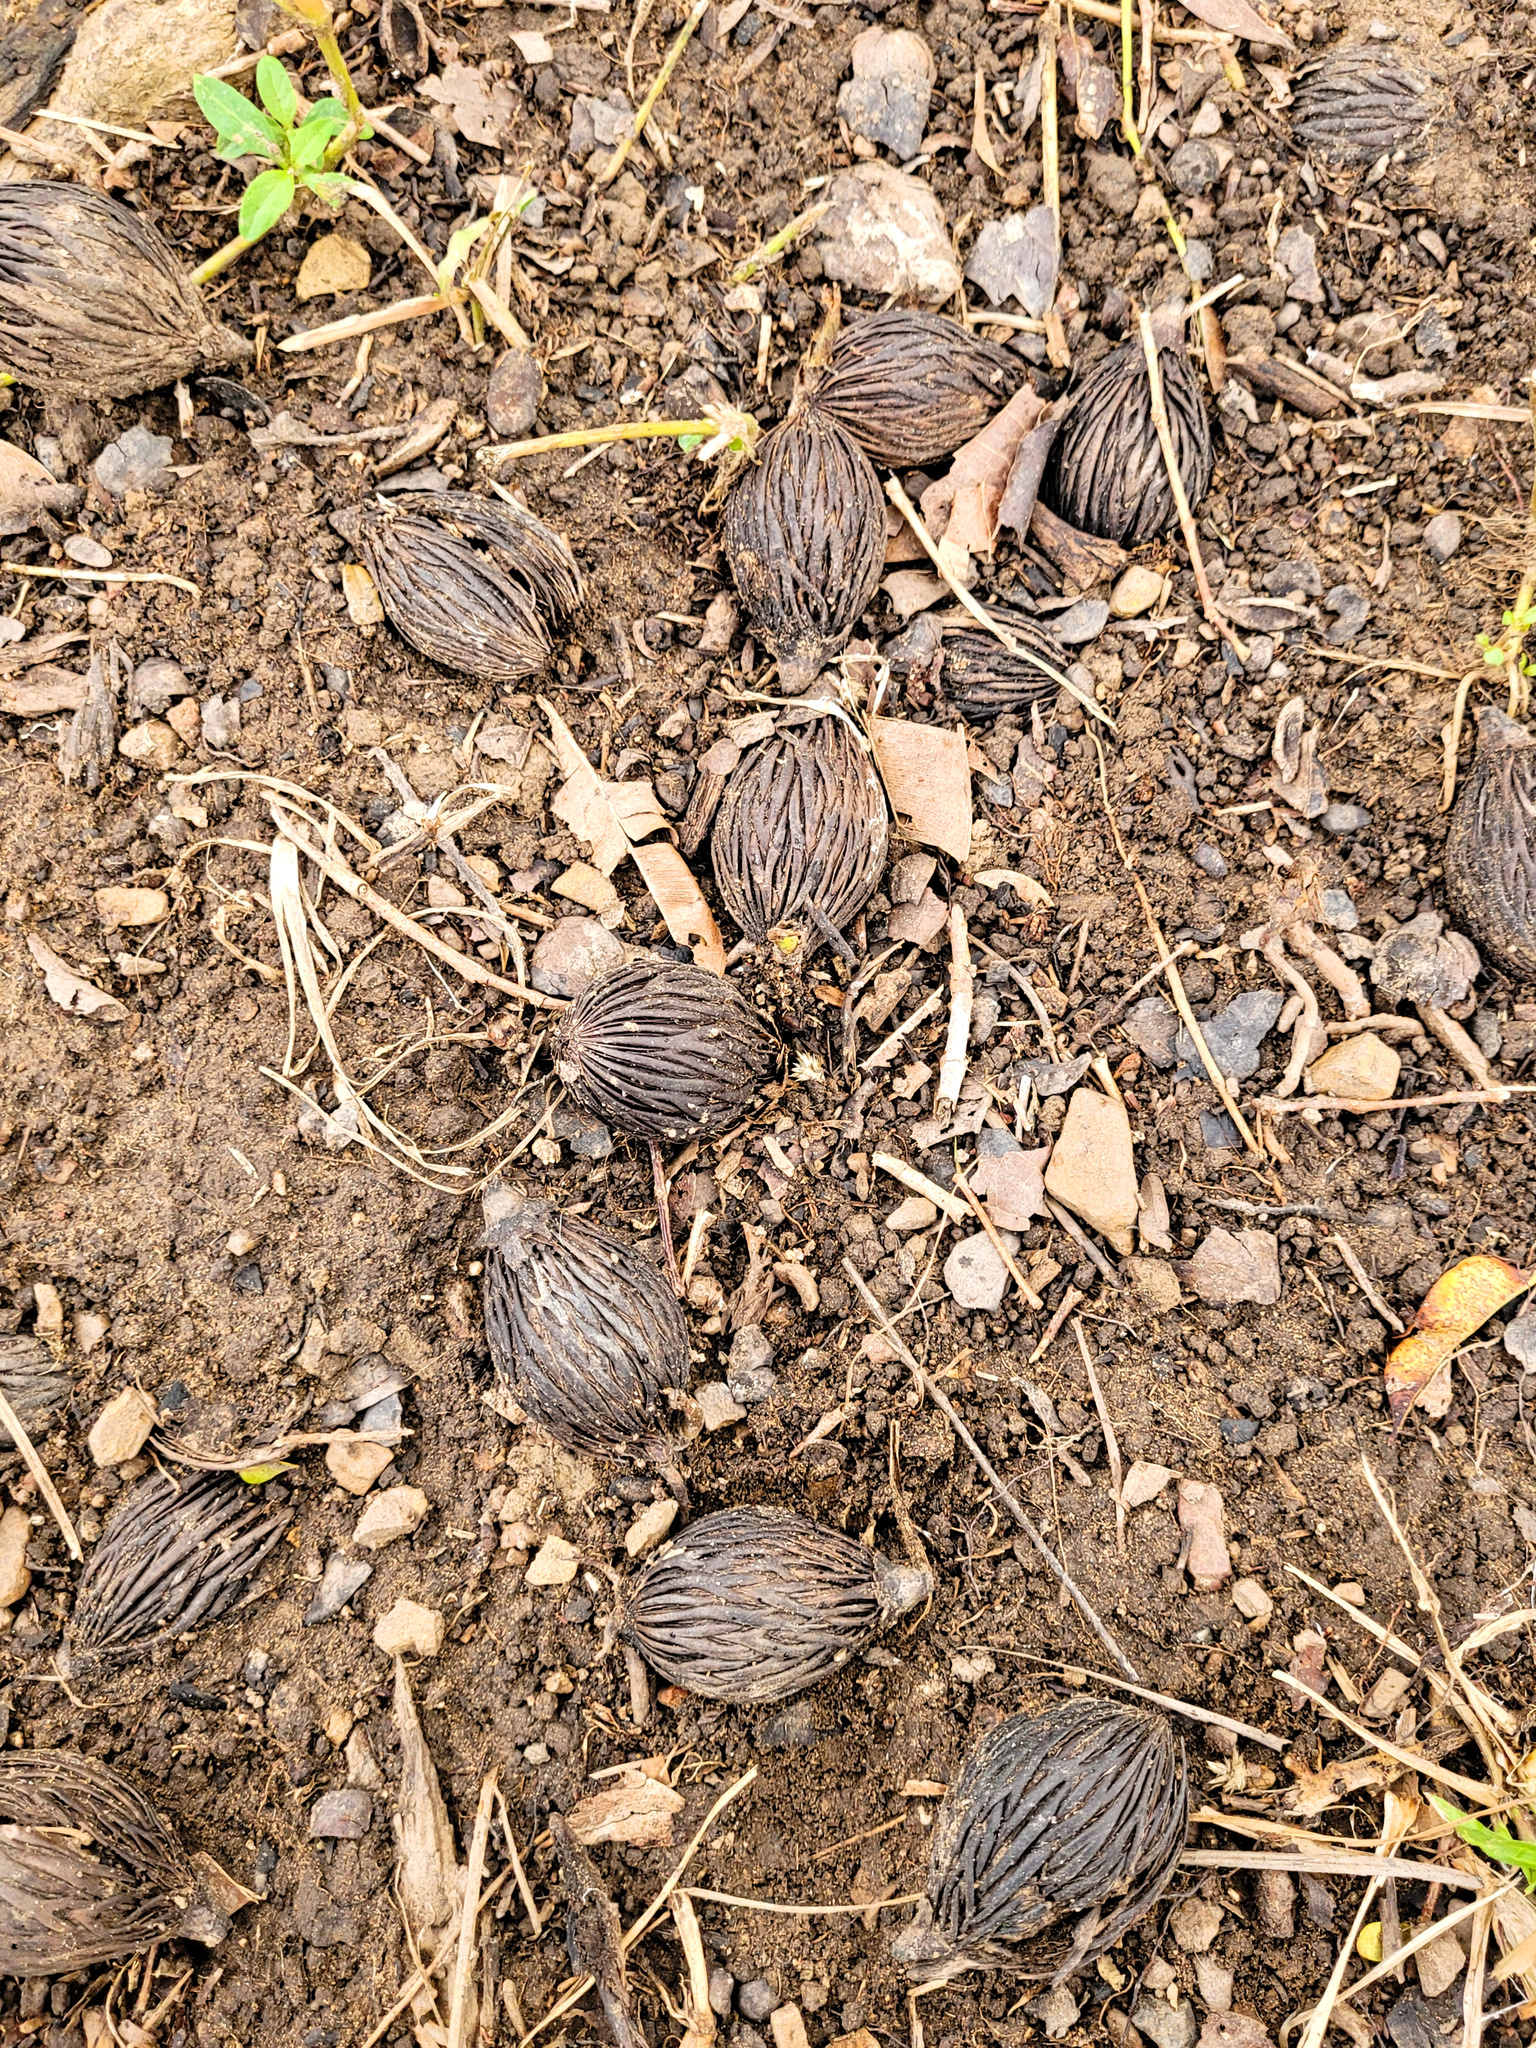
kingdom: Plantae
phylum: Tracheophyta
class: Liliopsida
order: Arecales
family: Arecaceae
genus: Wodyetia
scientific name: Wodyetia bifurcata
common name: Foxtail palm
